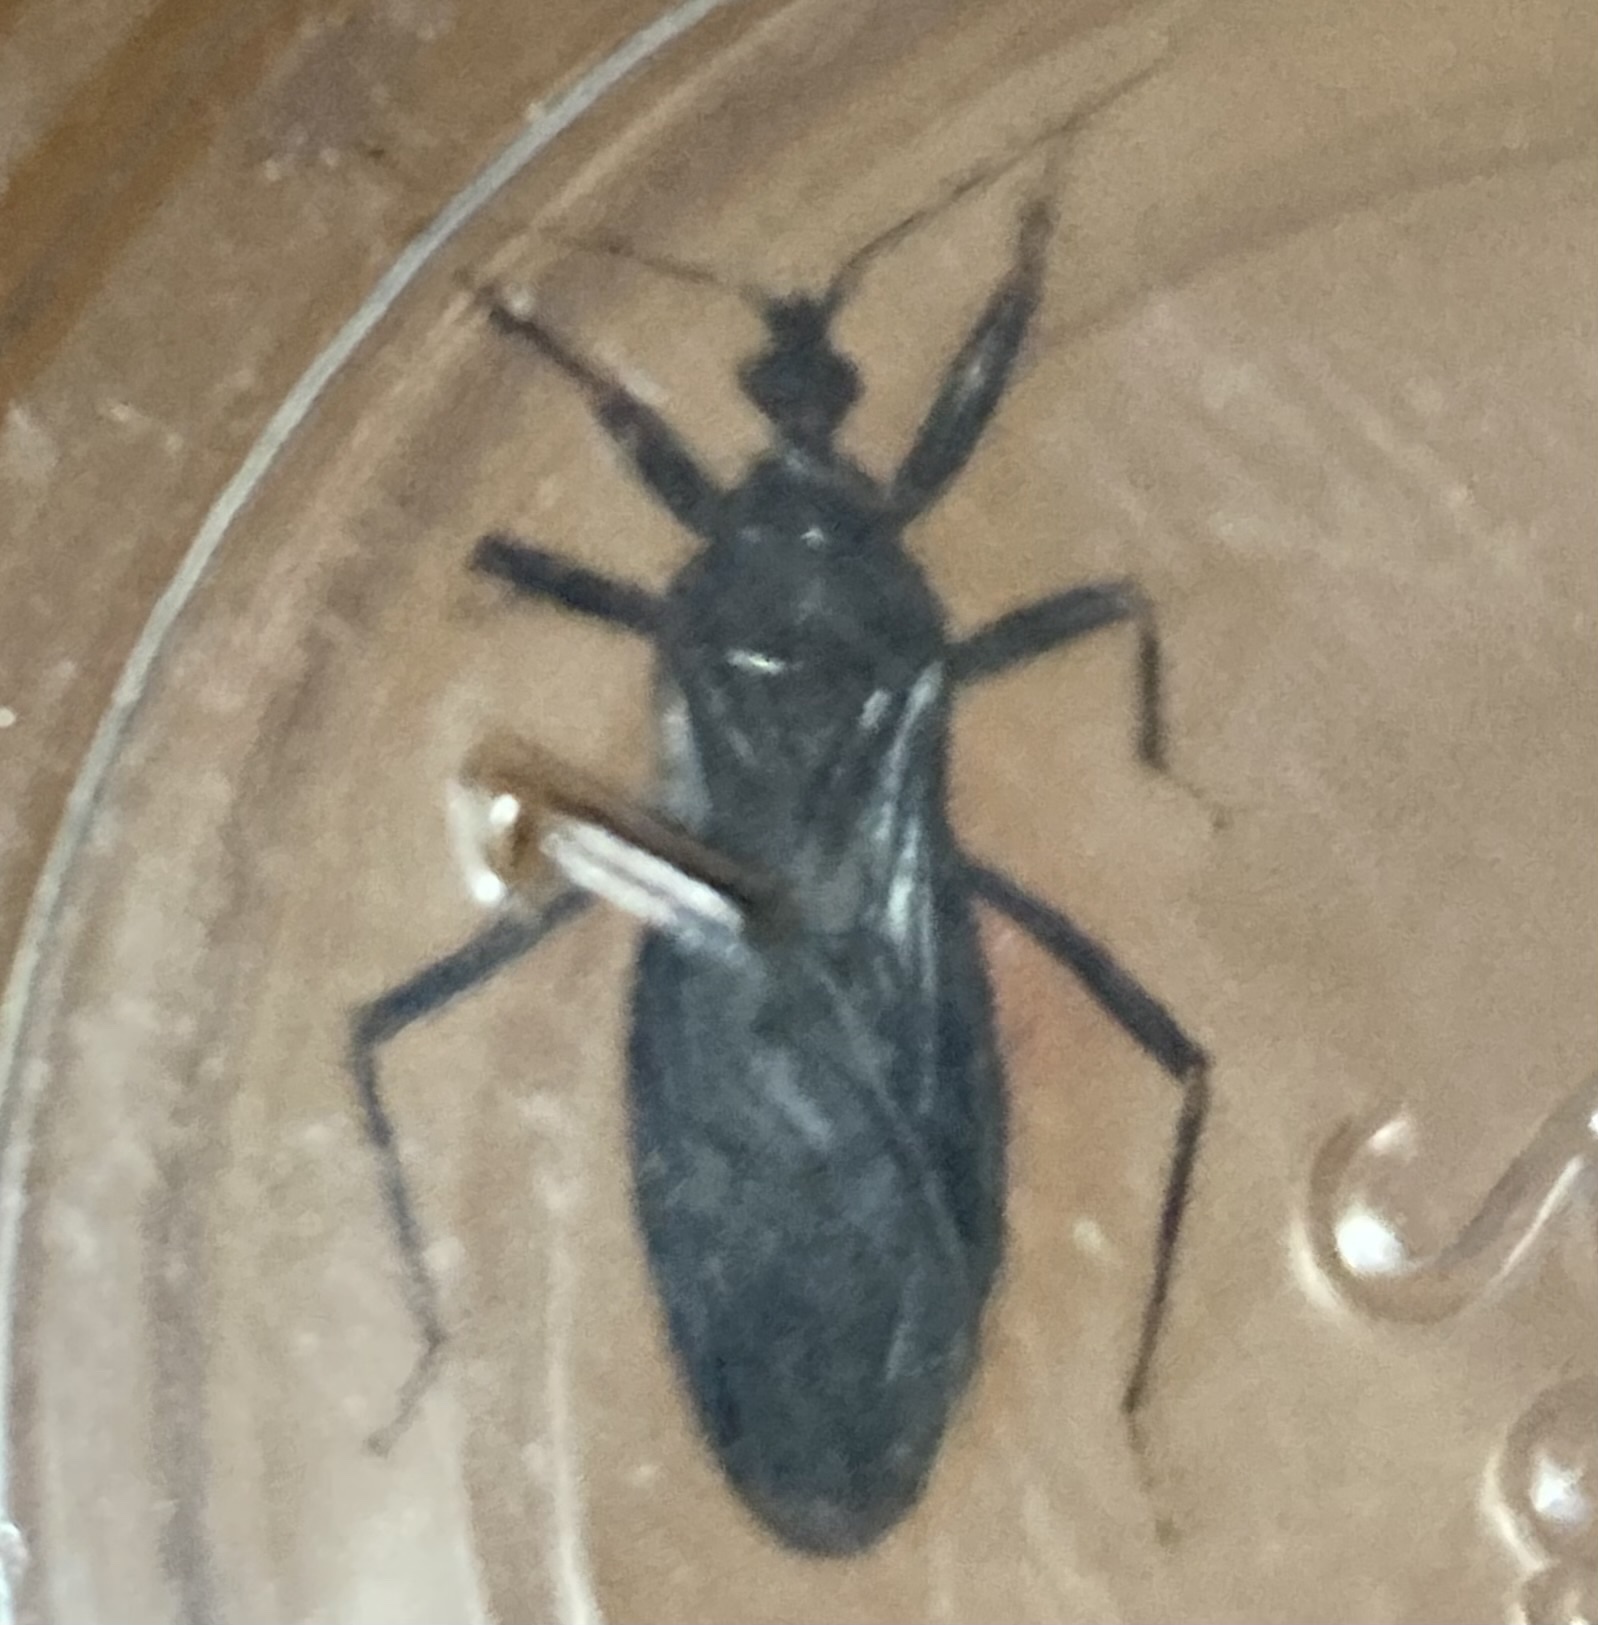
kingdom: Animalia
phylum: Arthropoda
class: Insecta
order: Hemiptera
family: Reduviidae
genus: Reduvius
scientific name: Reduvius personatus
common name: Masked hunter
